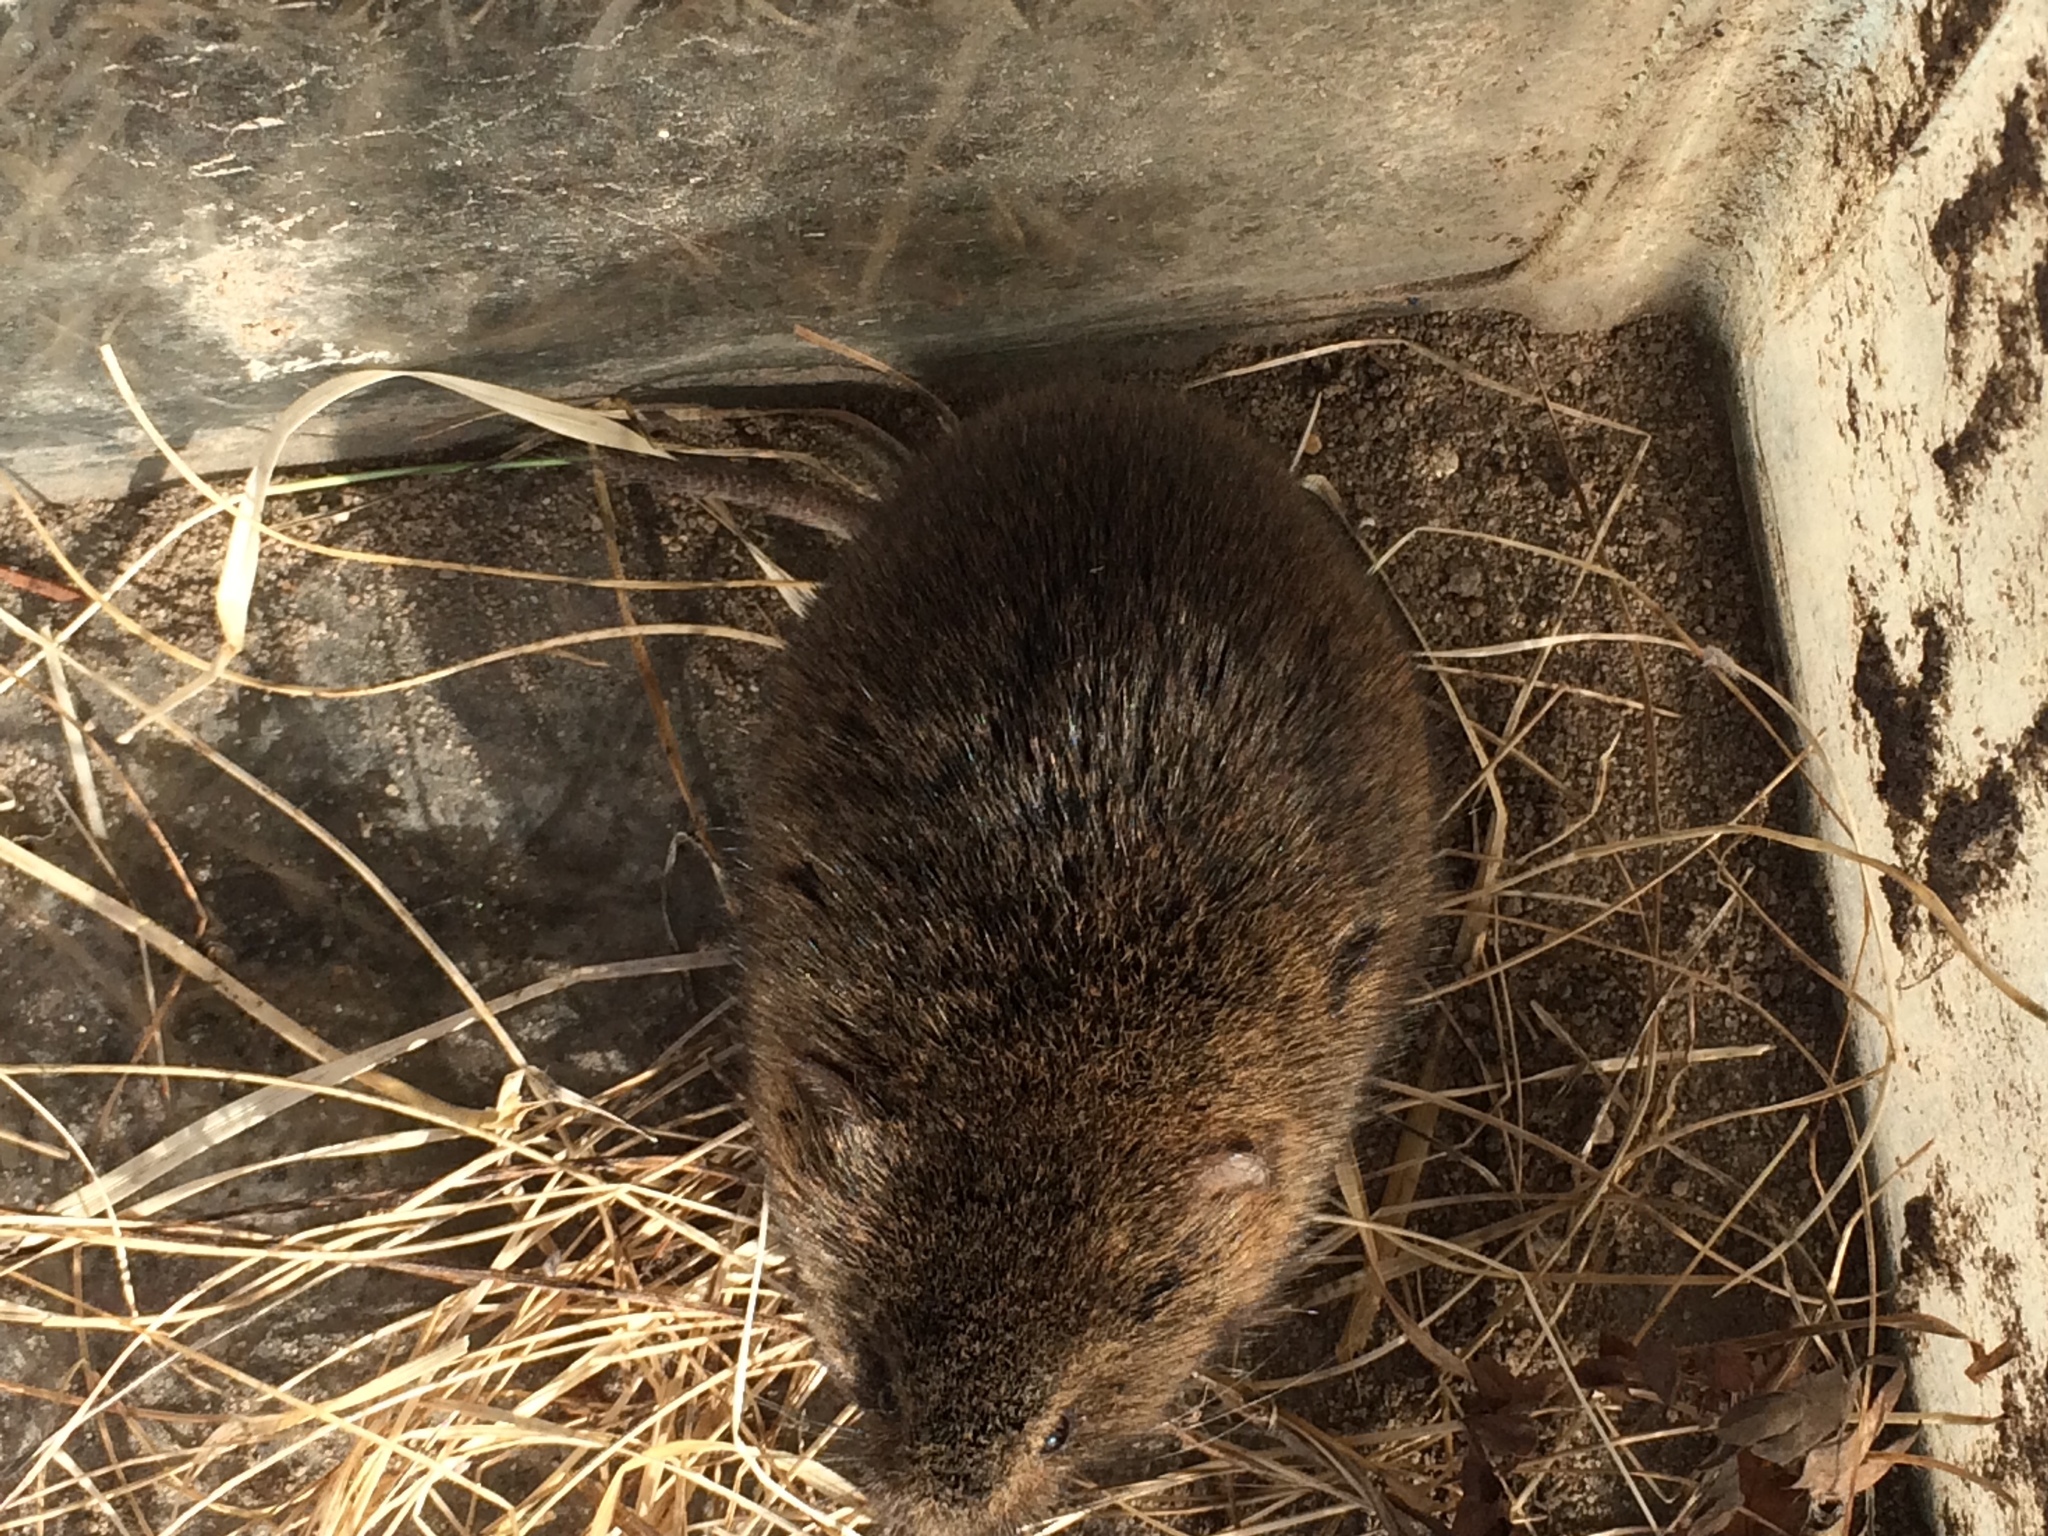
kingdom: Animalia
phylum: Chordata
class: Mammalia
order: Rodentia
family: Cricetidae
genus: Microtus
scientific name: Microtus pennsylvanicus
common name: Meadow vole
